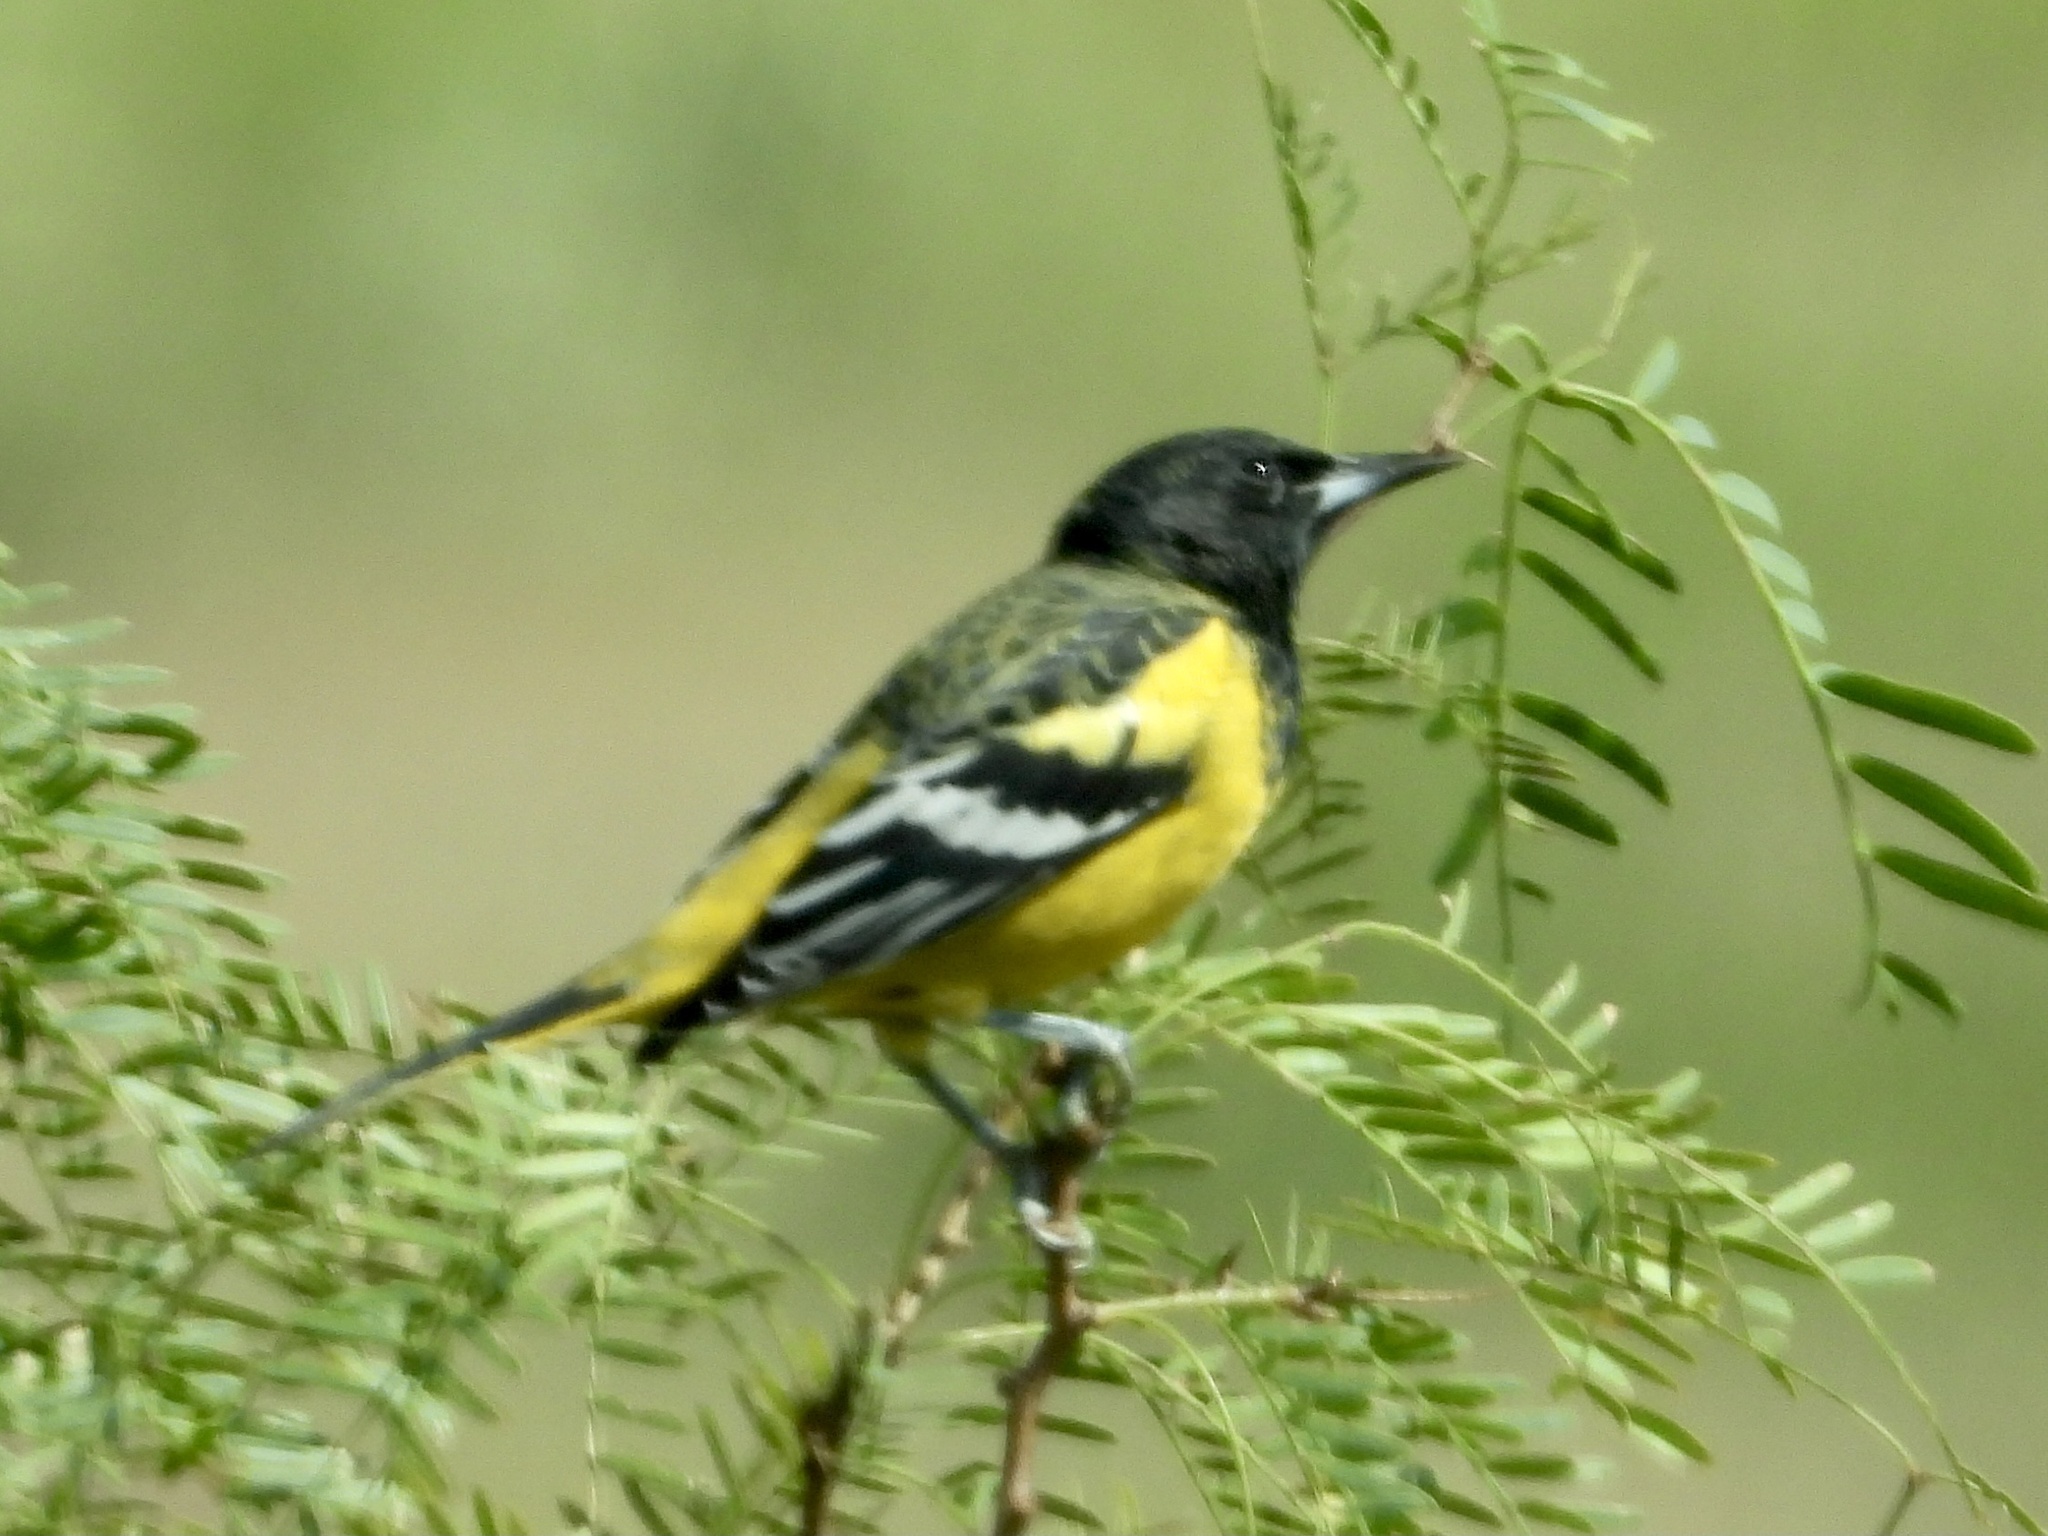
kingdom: Animalia
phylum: Chordata
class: Aves
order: Passeriformes
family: Icteridae
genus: Icterus
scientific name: Icterus parisorum
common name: Scott's oriole
